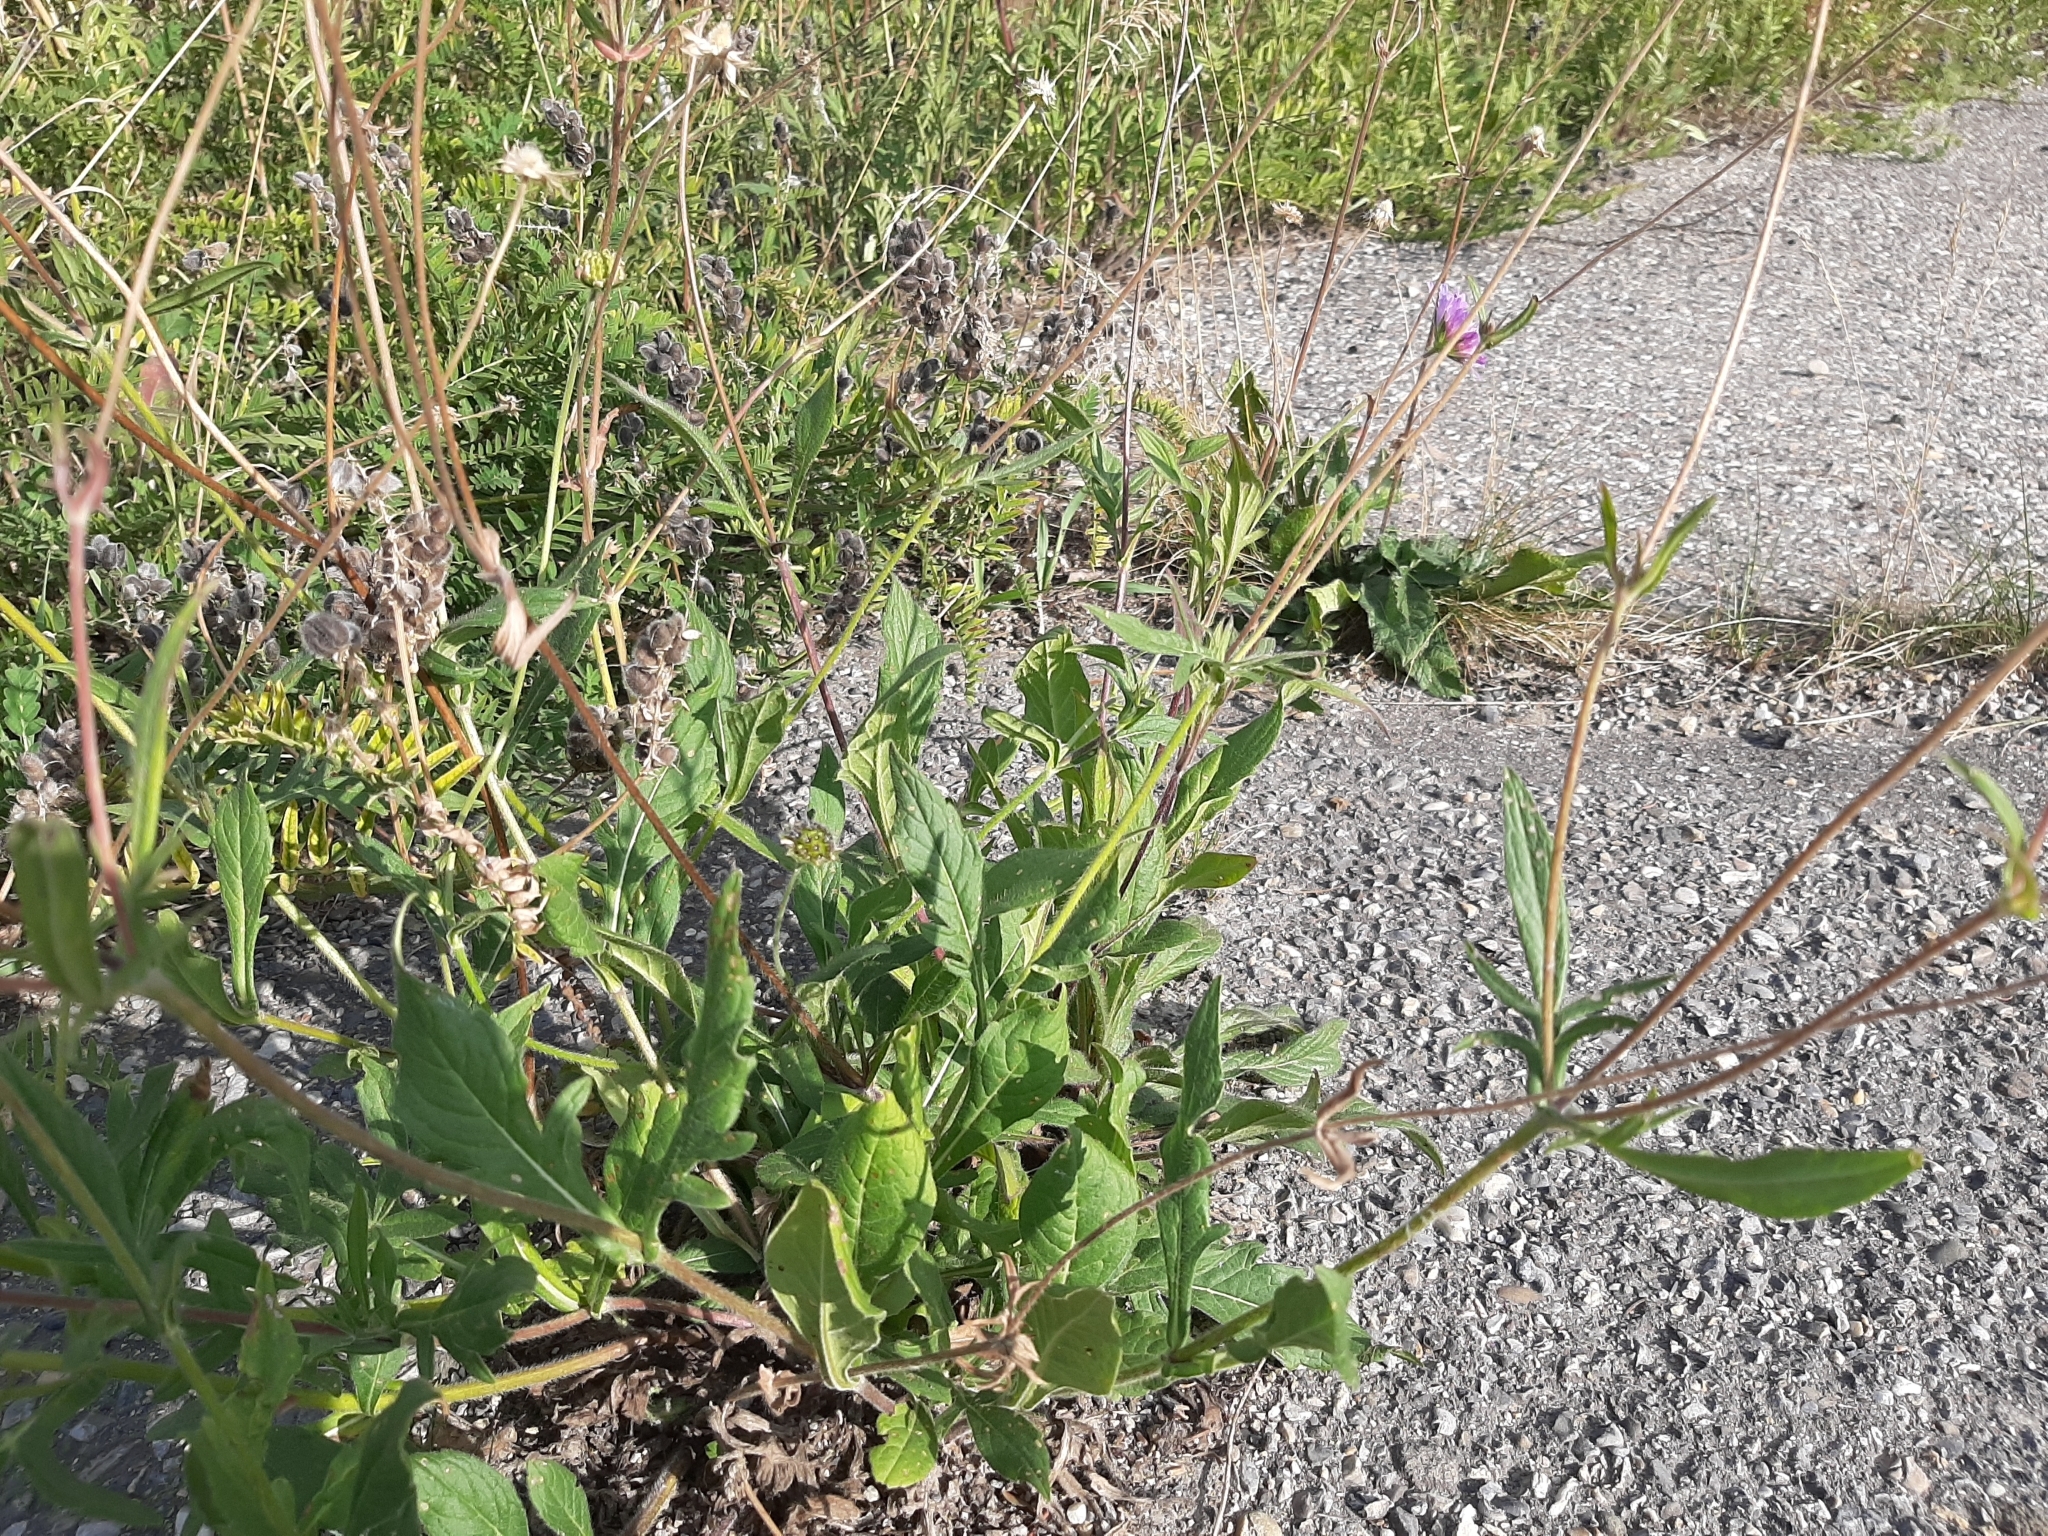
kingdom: Plantae
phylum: Tracheophyta
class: Magnoliopsida
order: Dipsacales
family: Caprifoliaceae
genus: Knautia
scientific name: Knautia arvensis
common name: Field scabiosa
